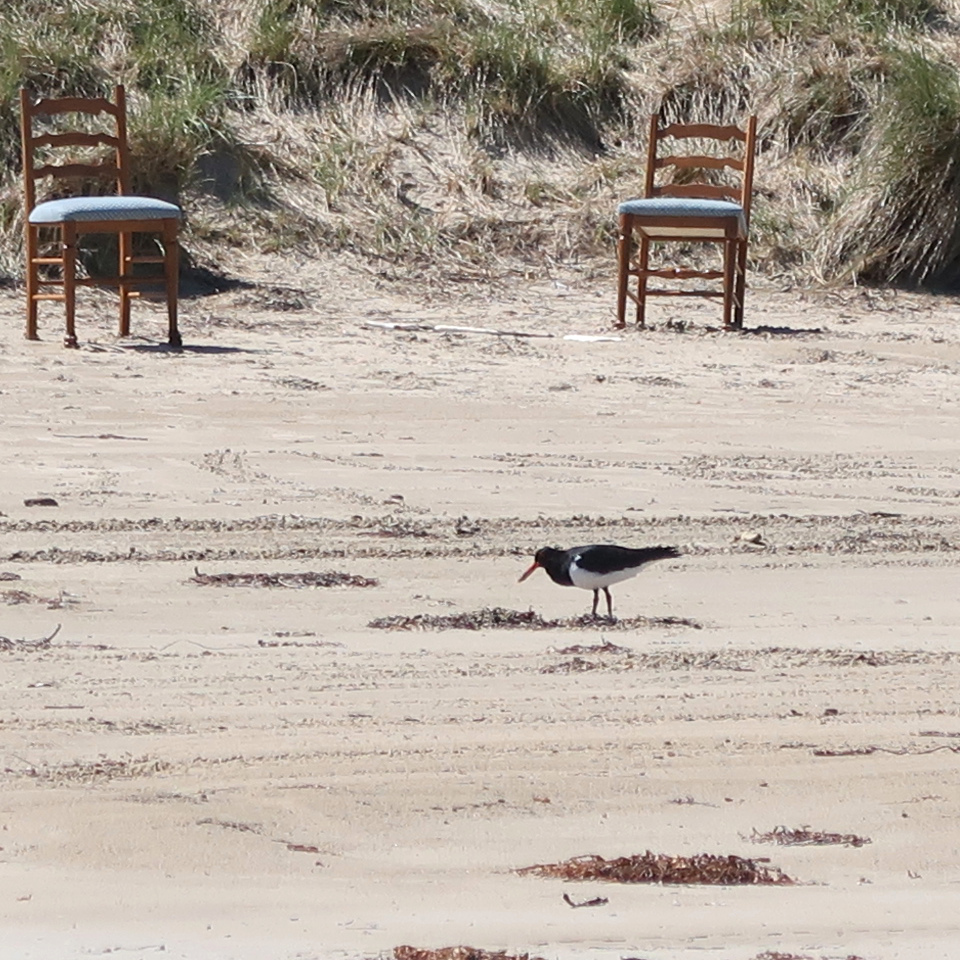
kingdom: Animalia
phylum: Chordata
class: Aves
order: Charadriiformes
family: Haematopodidae
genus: Haematopus
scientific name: Haematopus longirostris
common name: Pied oystercatcher
